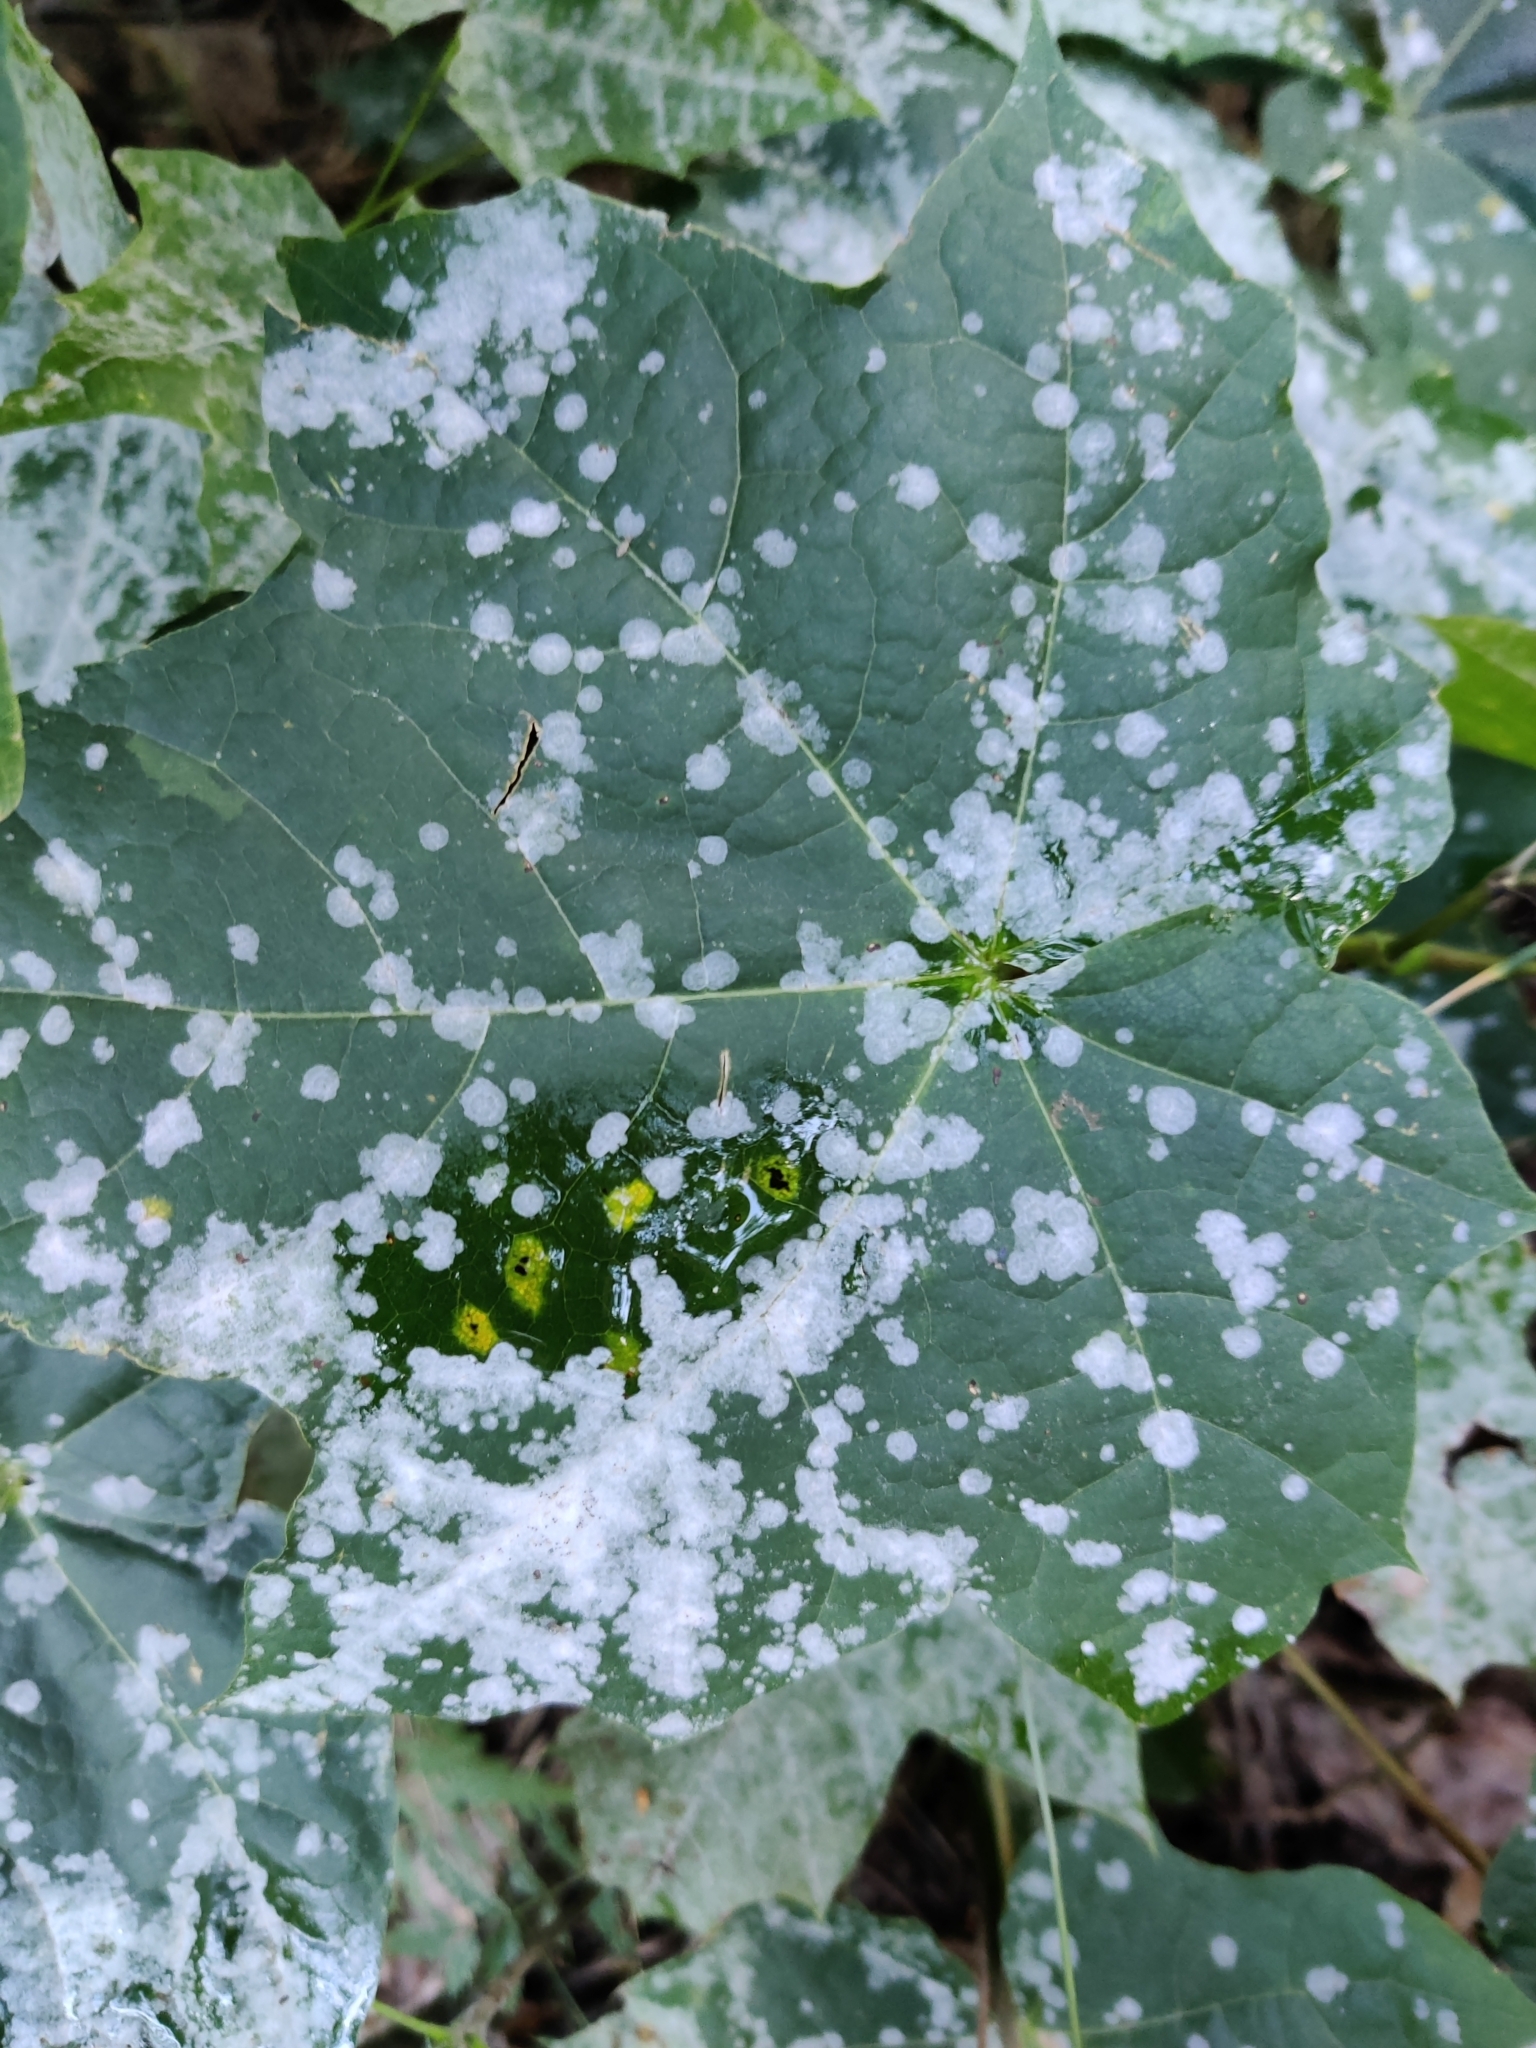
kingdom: Fungi
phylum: Ascomycota
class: Leotiomycetes
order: Helotiales
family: Erysiphaceae
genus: Sawadaea
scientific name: Sawadaea tulasnei
